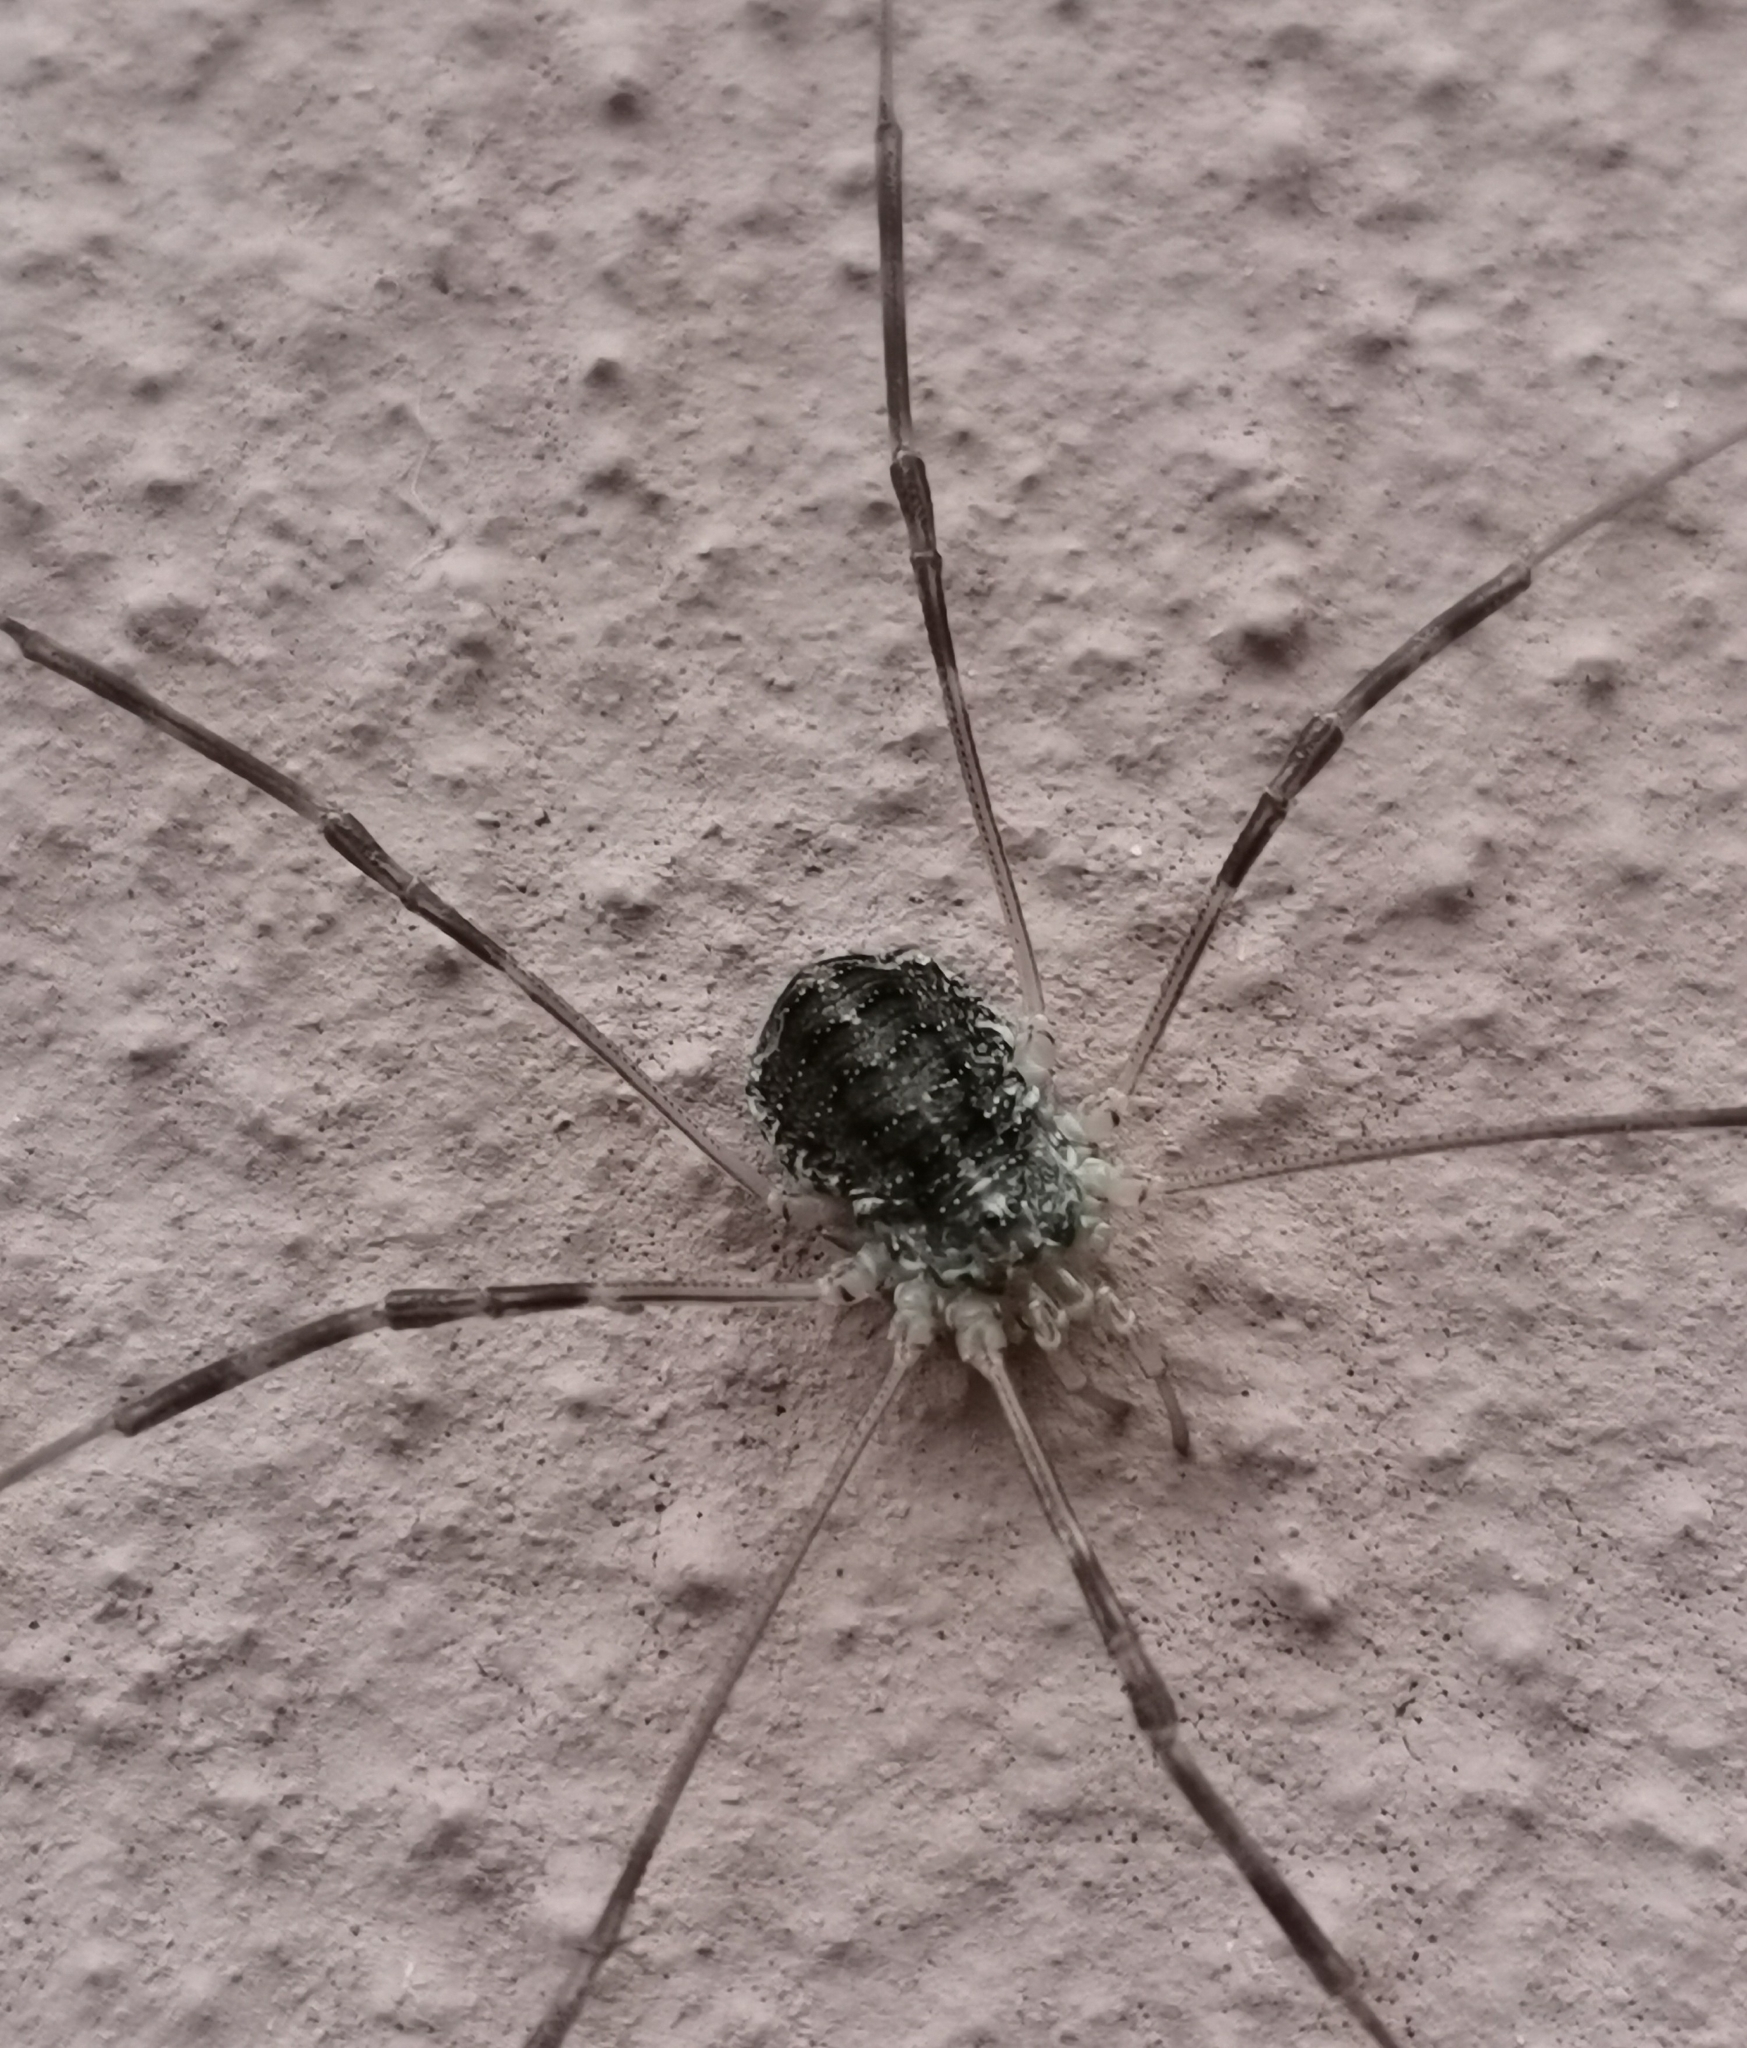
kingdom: Animalia
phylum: Arthropoda
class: Arachnida
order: Opiliones
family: Phalangiidae
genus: Opilio
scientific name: Opilio parietinus
